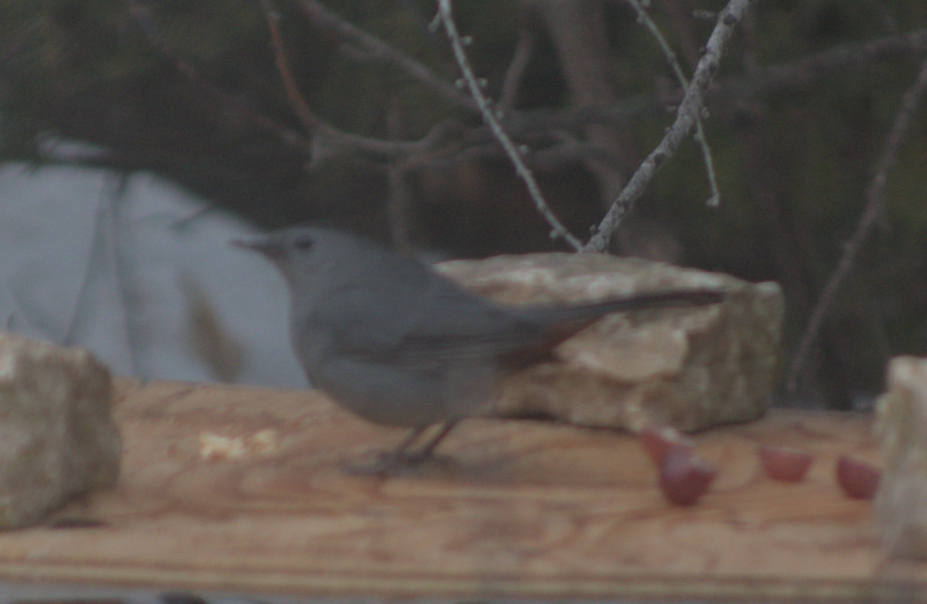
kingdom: Animalia
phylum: Chordata
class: Aves
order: Passeriformes
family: Mimidae
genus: Dumetella
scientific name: Dumetella carolinensis
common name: Gray catbird
